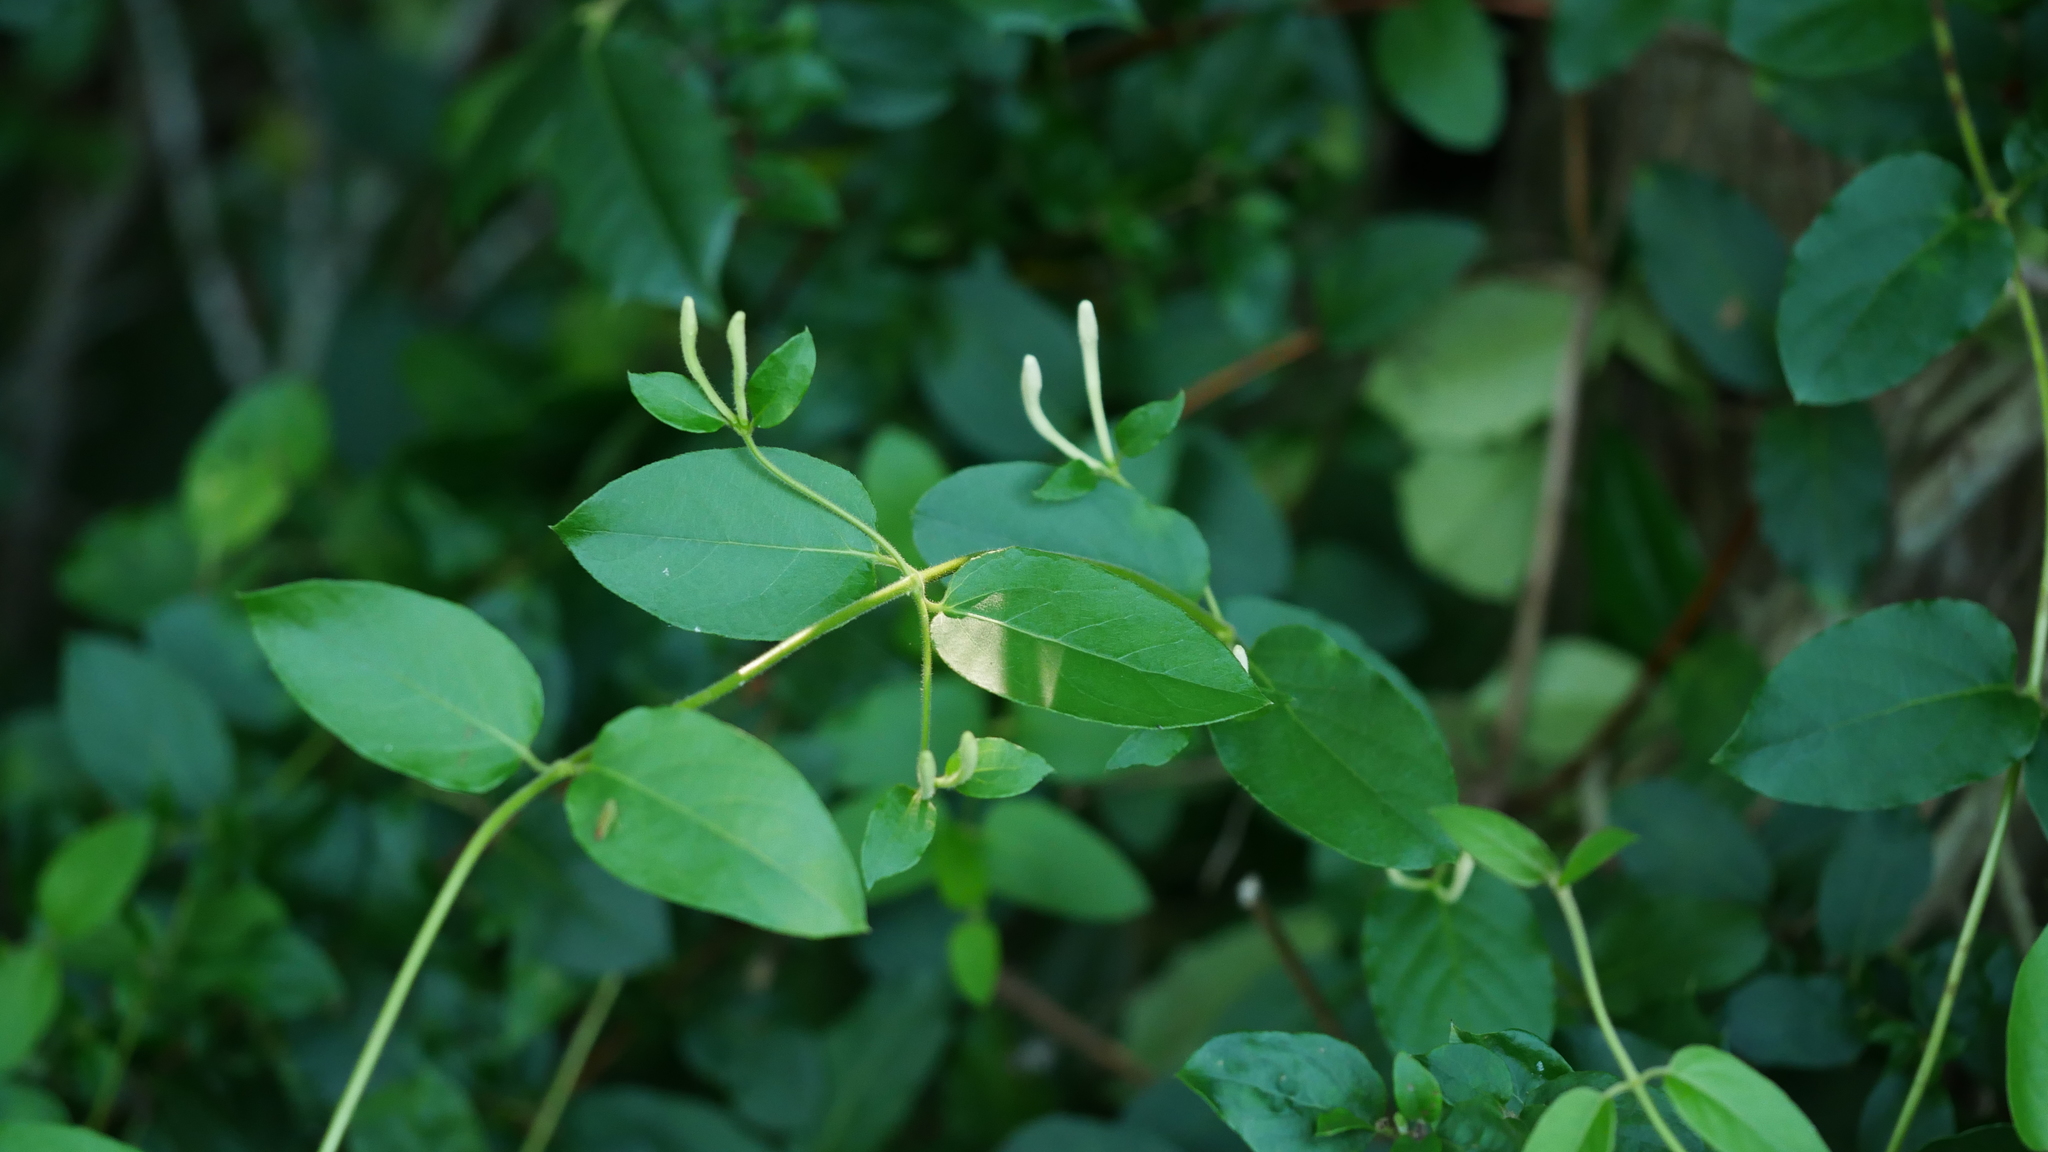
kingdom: Plantae
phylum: Tracheophyta
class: Magnoliopsida
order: Dipsacales
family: Caprifoliaceae
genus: Lonicera
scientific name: Lonicera japonica
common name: Japanese honeysuckle
